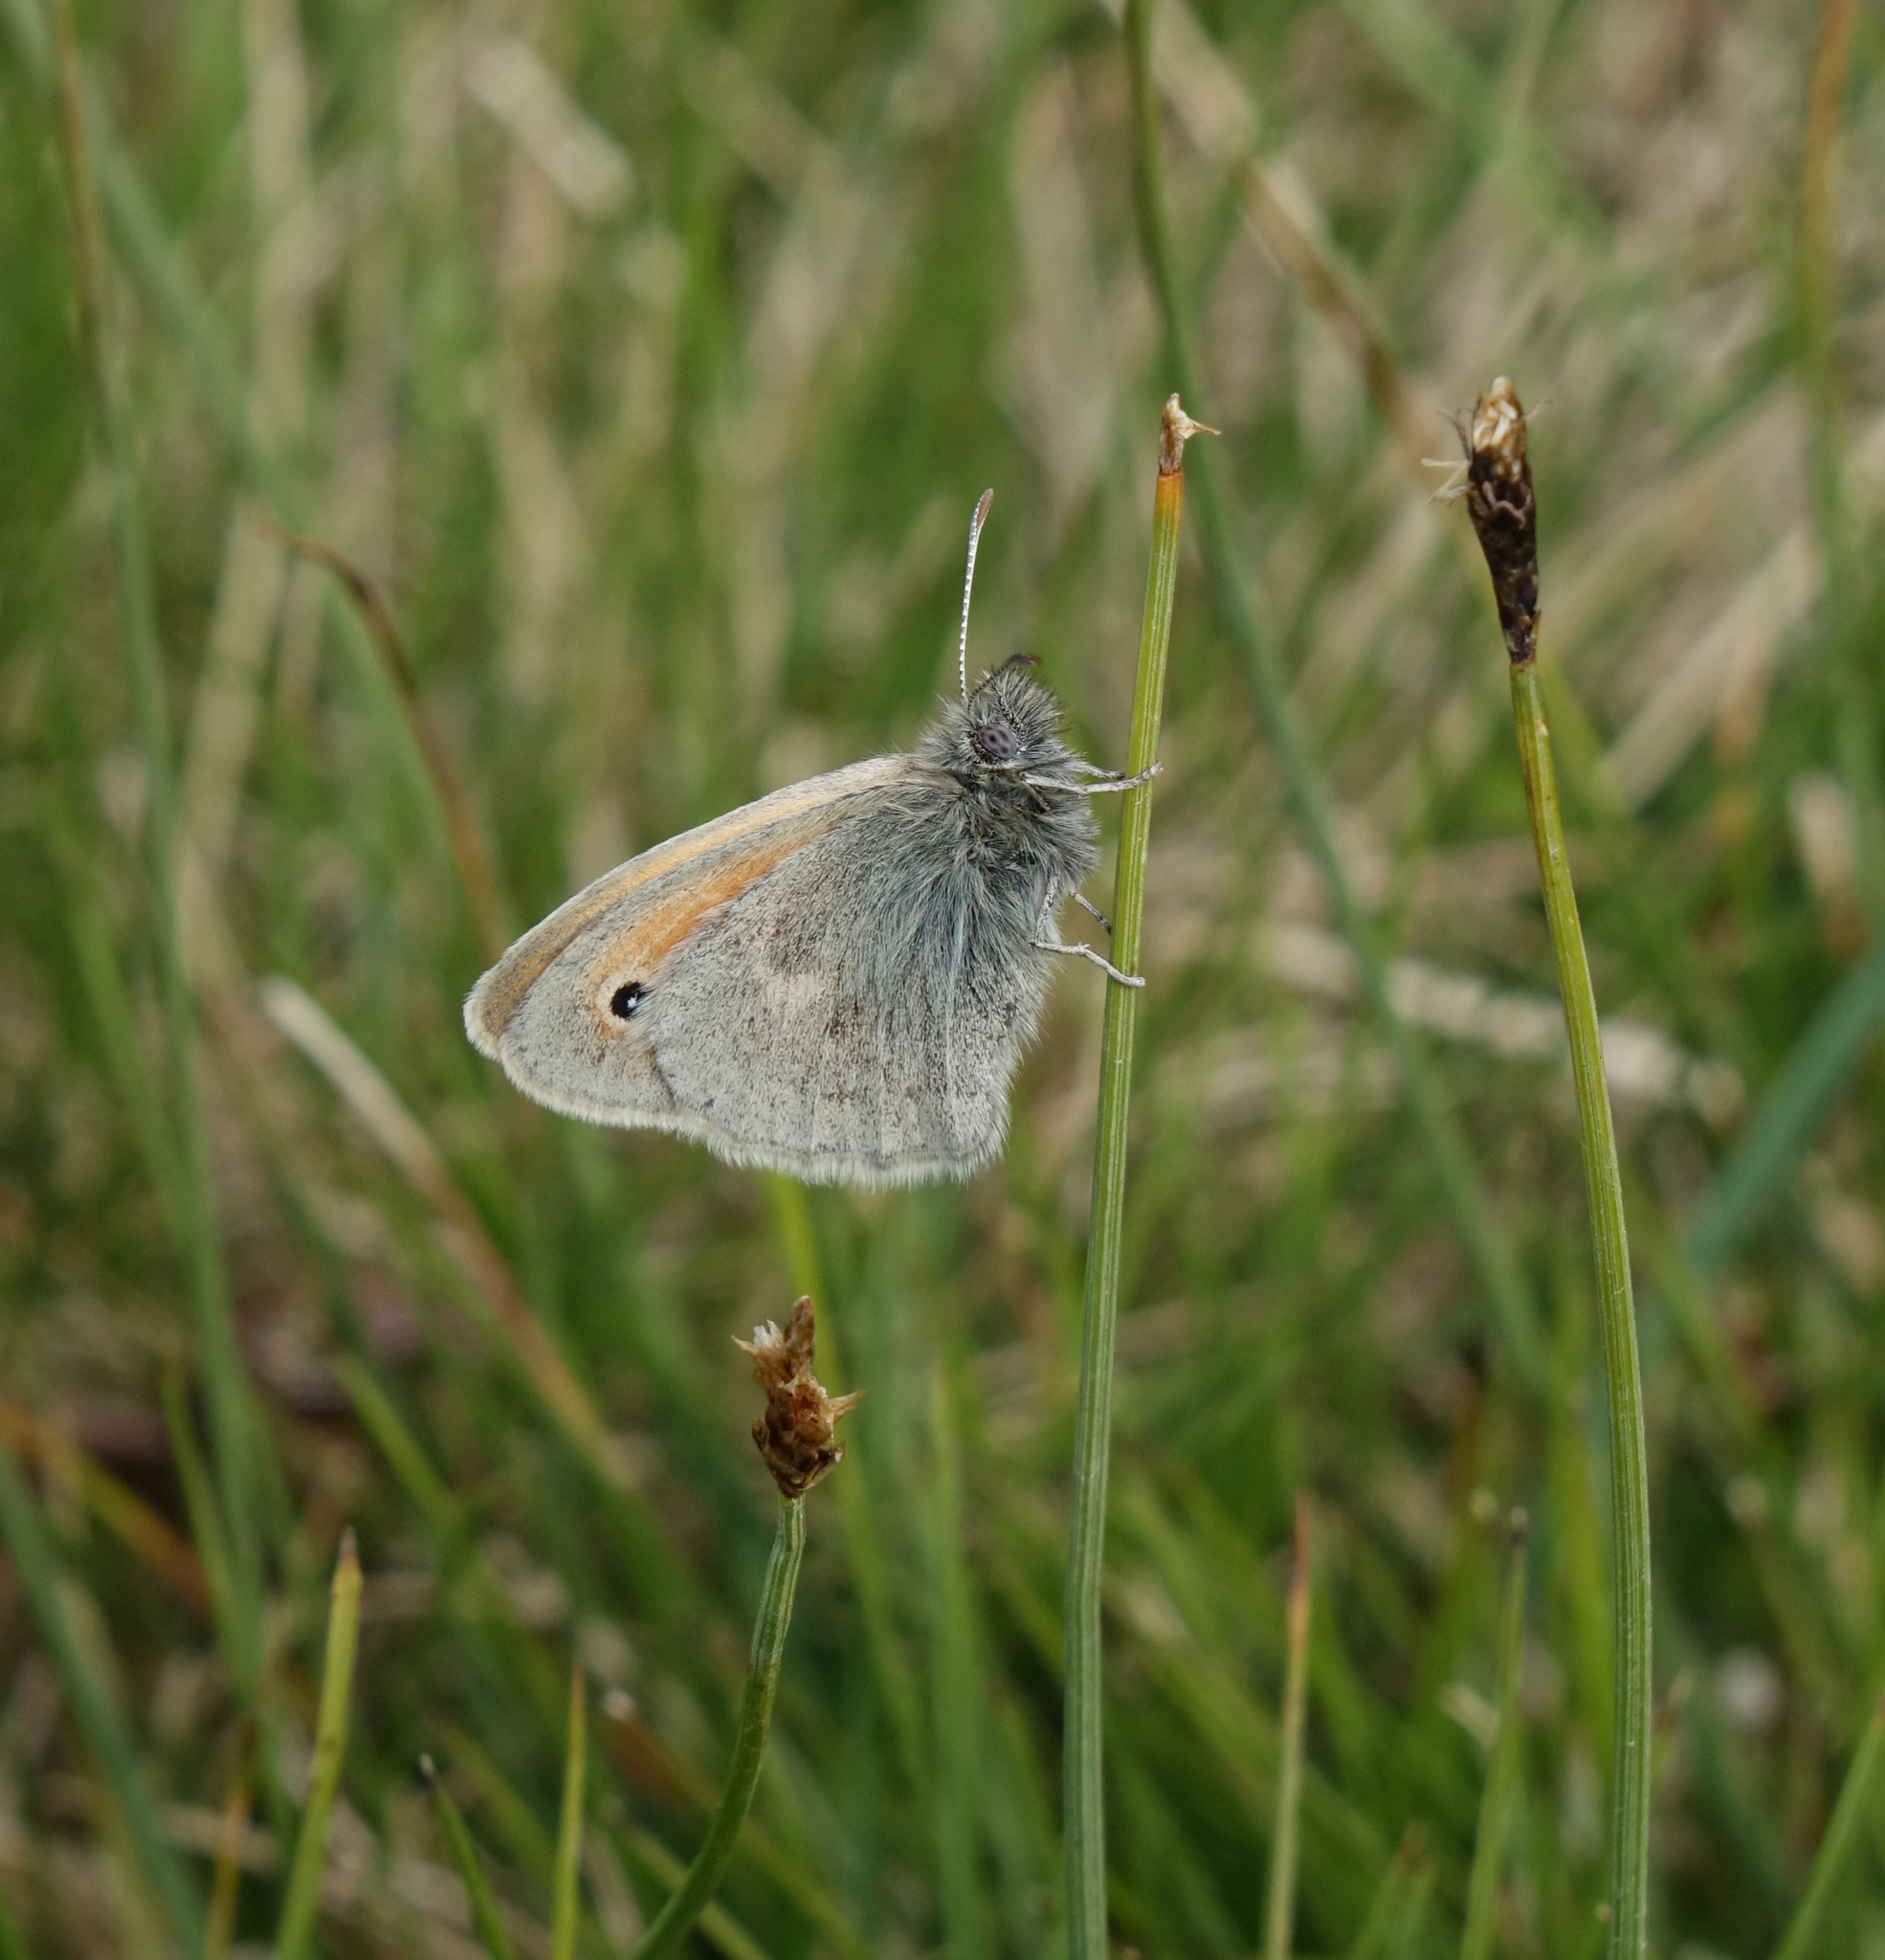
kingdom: Animalia
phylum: Arthropoda
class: Insecta
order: Lepidoptera
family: Nymphalidae
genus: Coenonympha
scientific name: Coenonympha pamphilus
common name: Small heath
